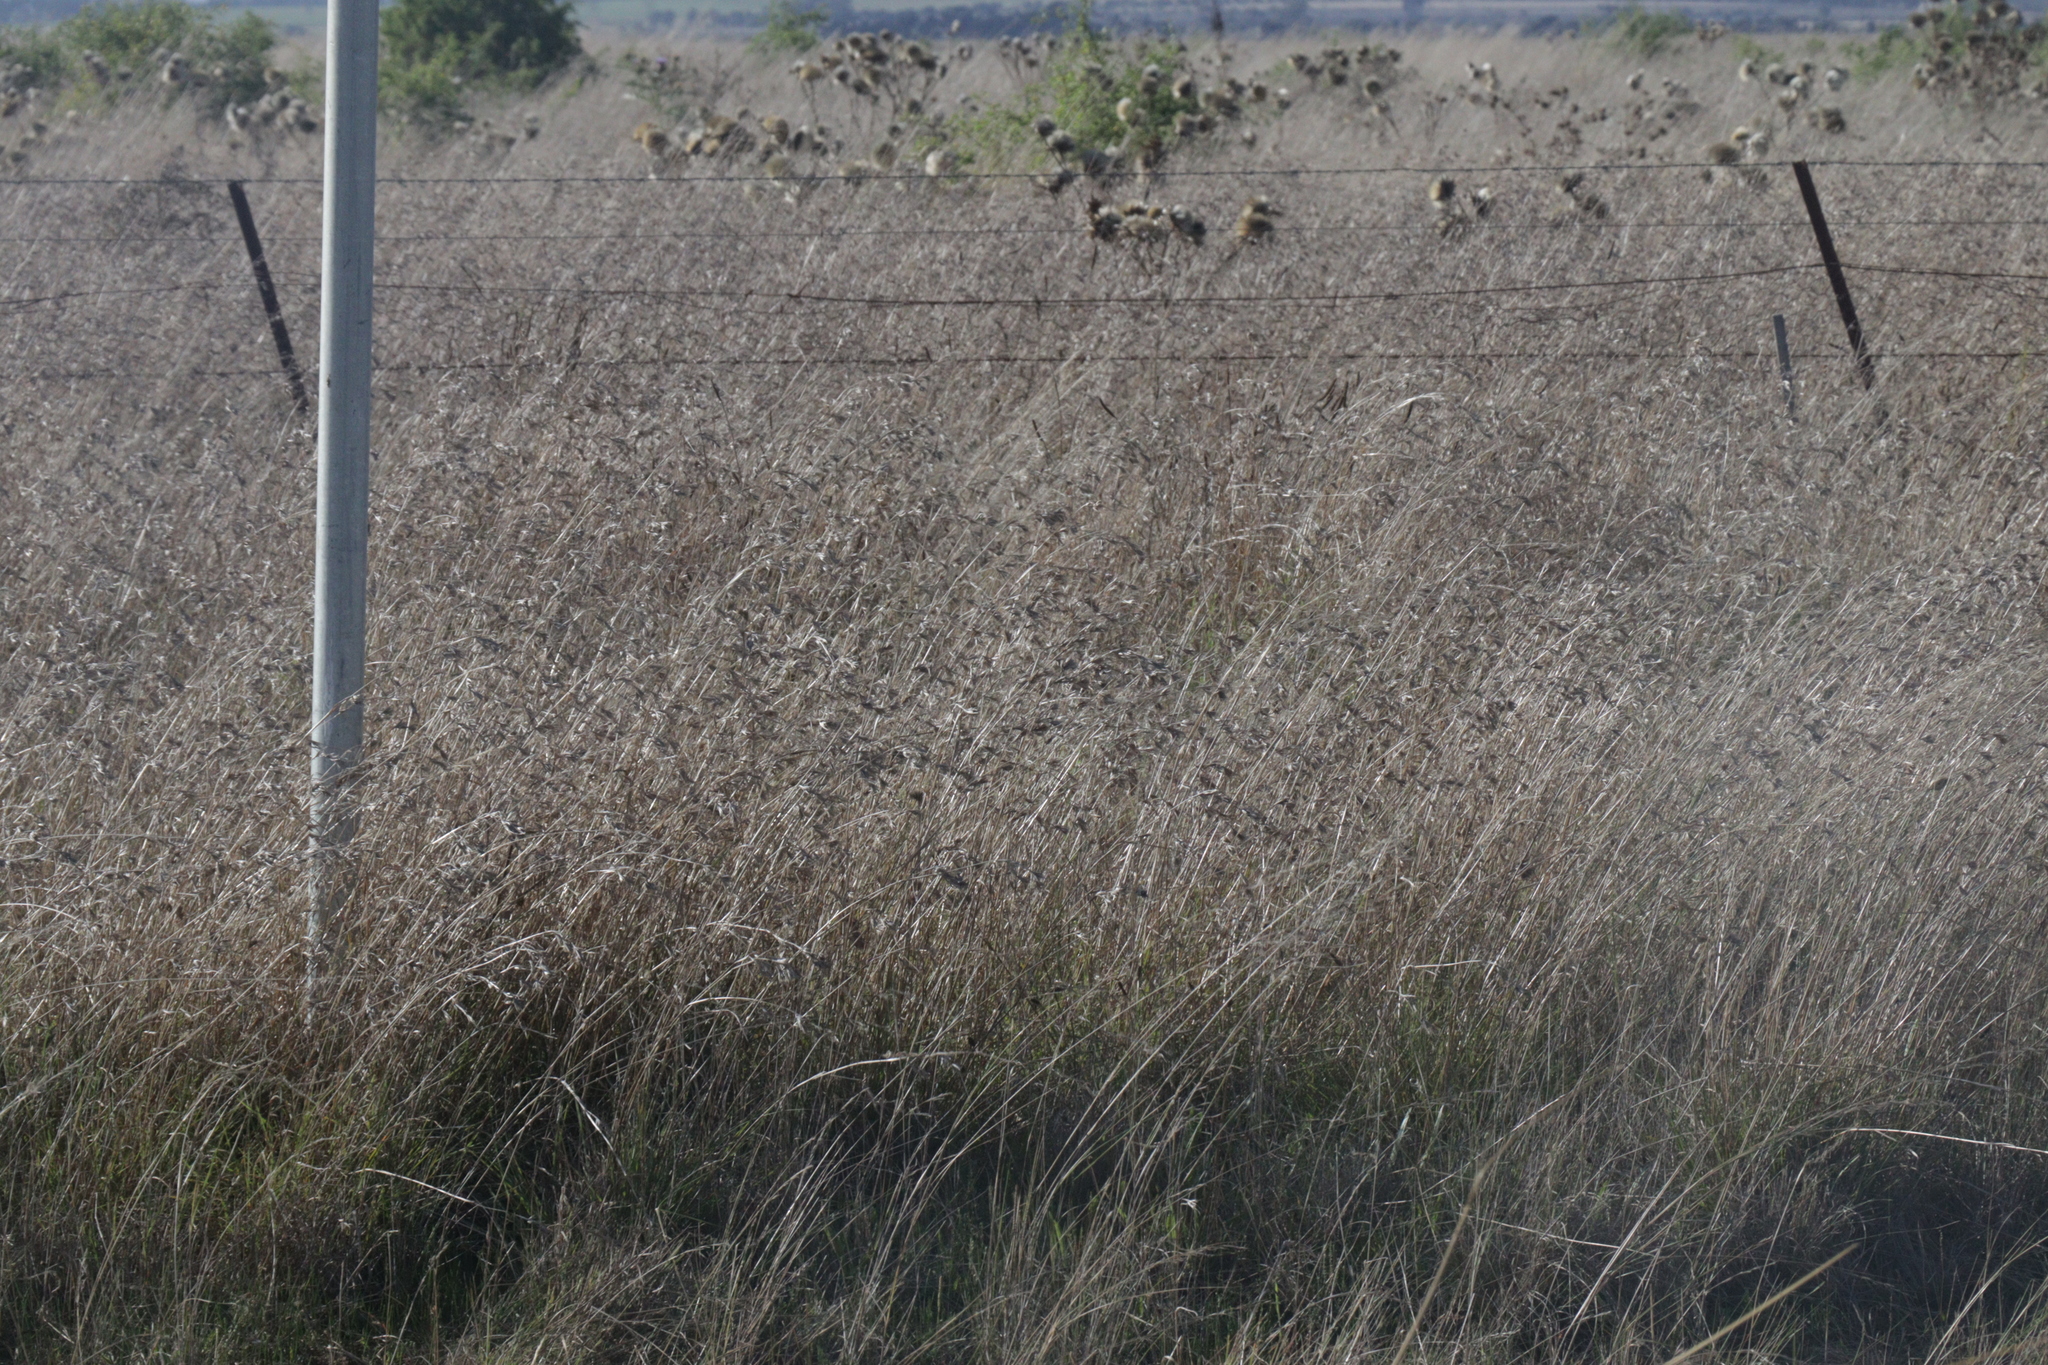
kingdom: Plantae
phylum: Tracheophyta
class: Liliopsida
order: Poales
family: Poaceae
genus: Themeda
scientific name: Themeda triandra
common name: Kangaroo grass
